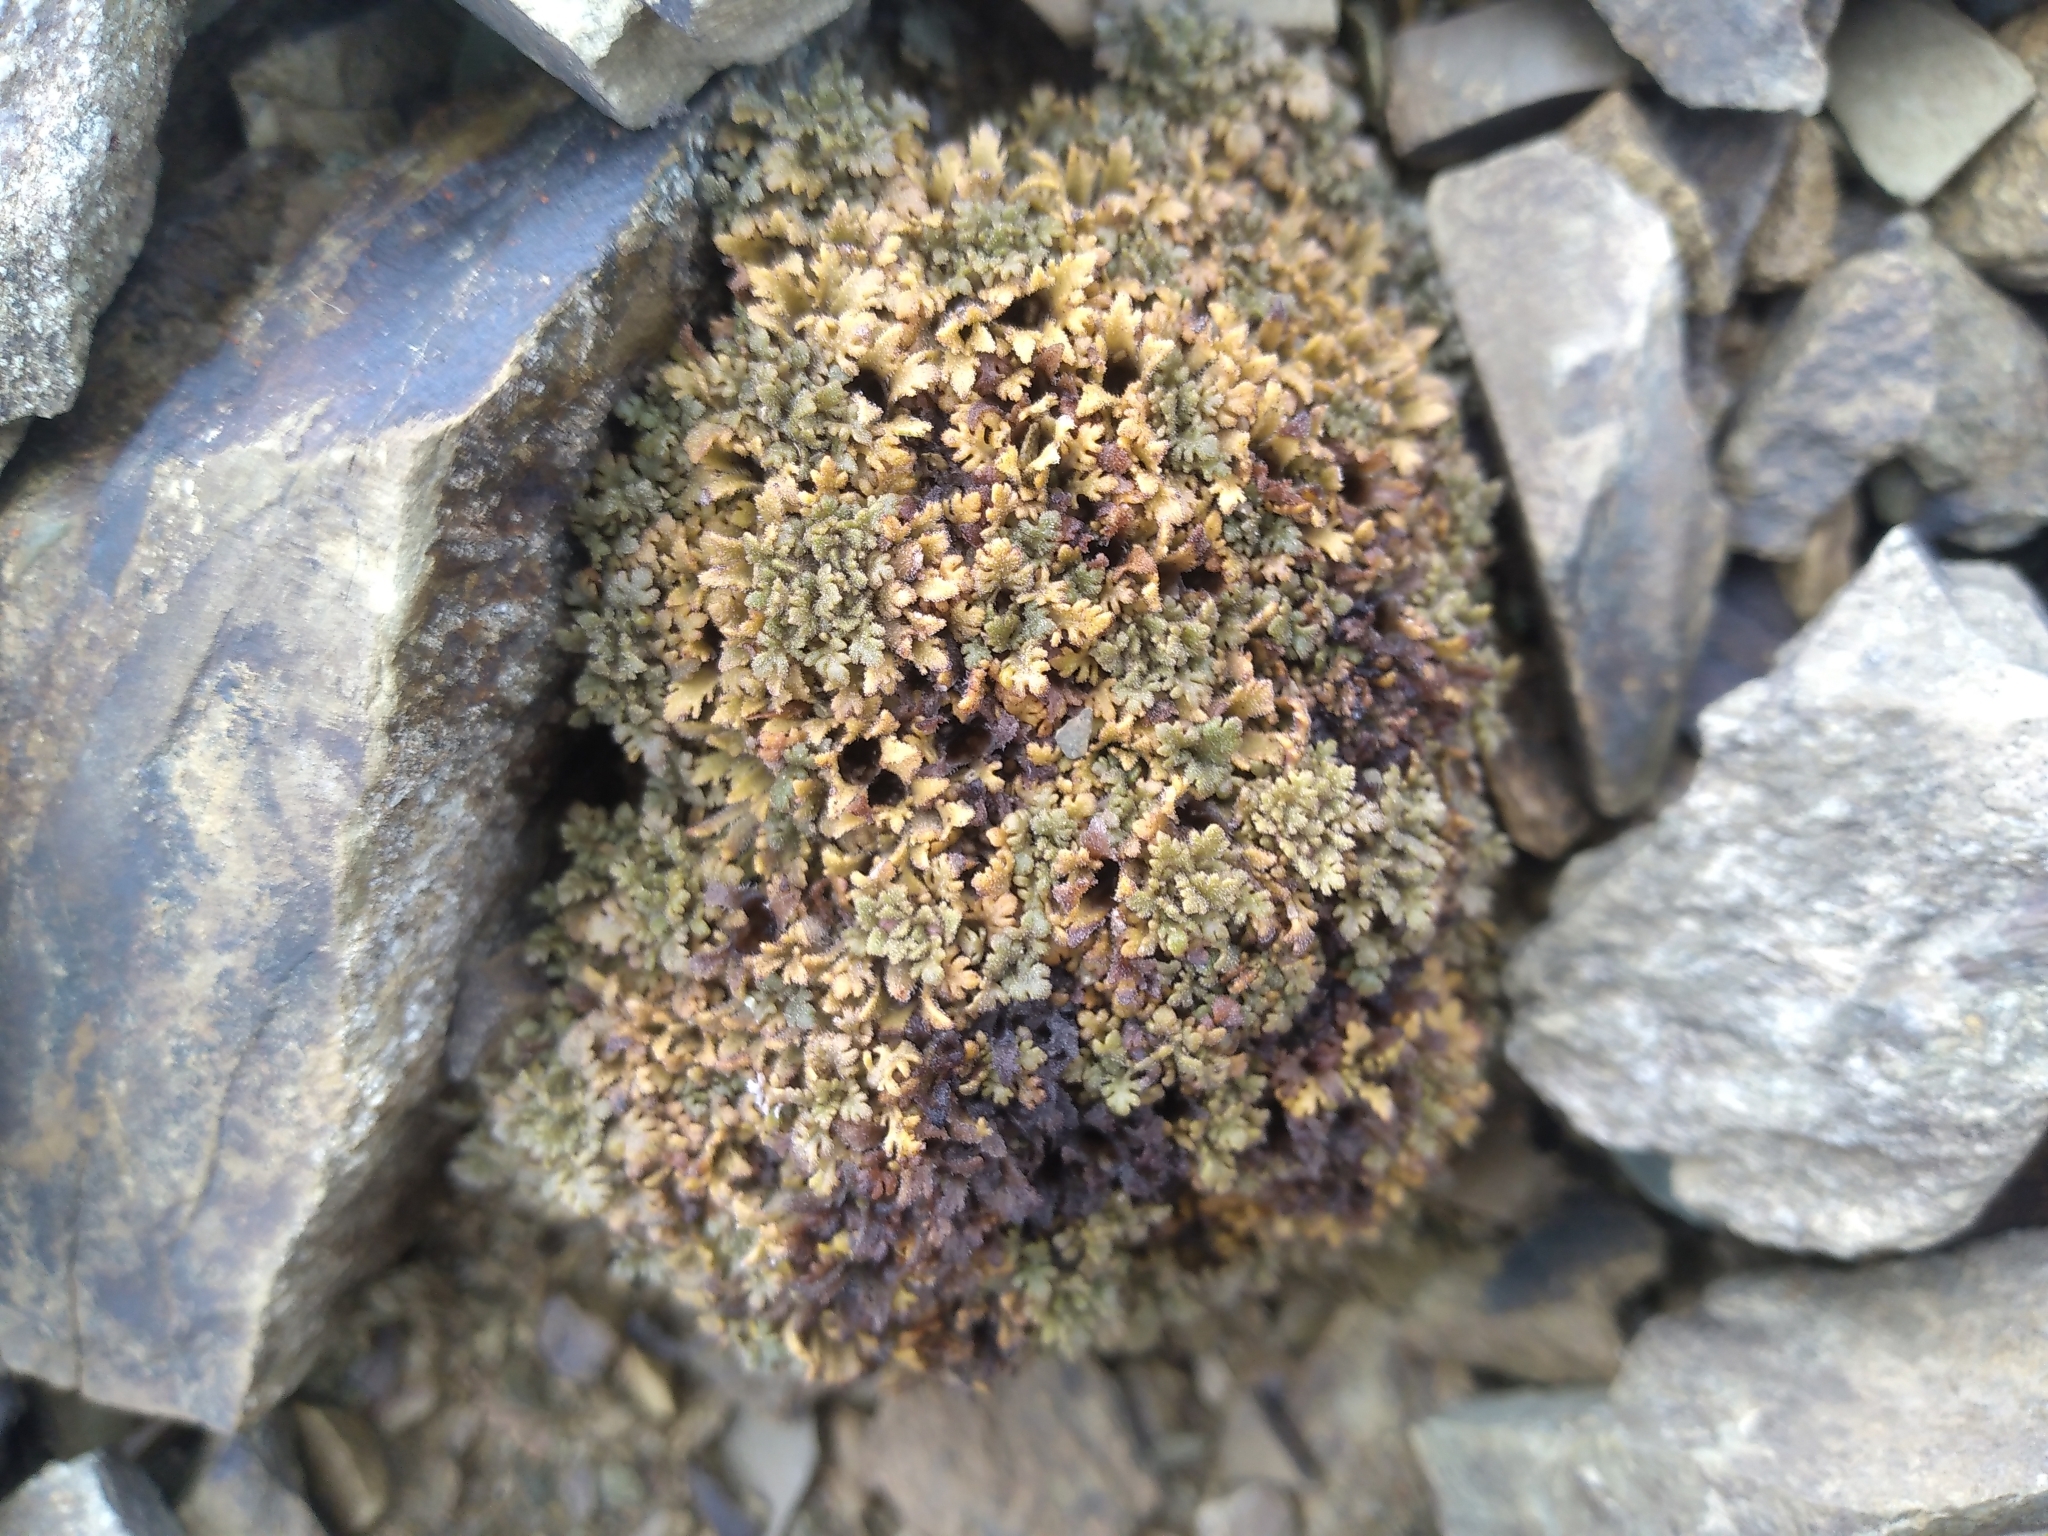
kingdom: Plantae
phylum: Tracheophyta
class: Magnoliopsida
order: Lamiales
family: Plantaginaceae
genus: Veronica
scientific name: Veronica cheesemanii
